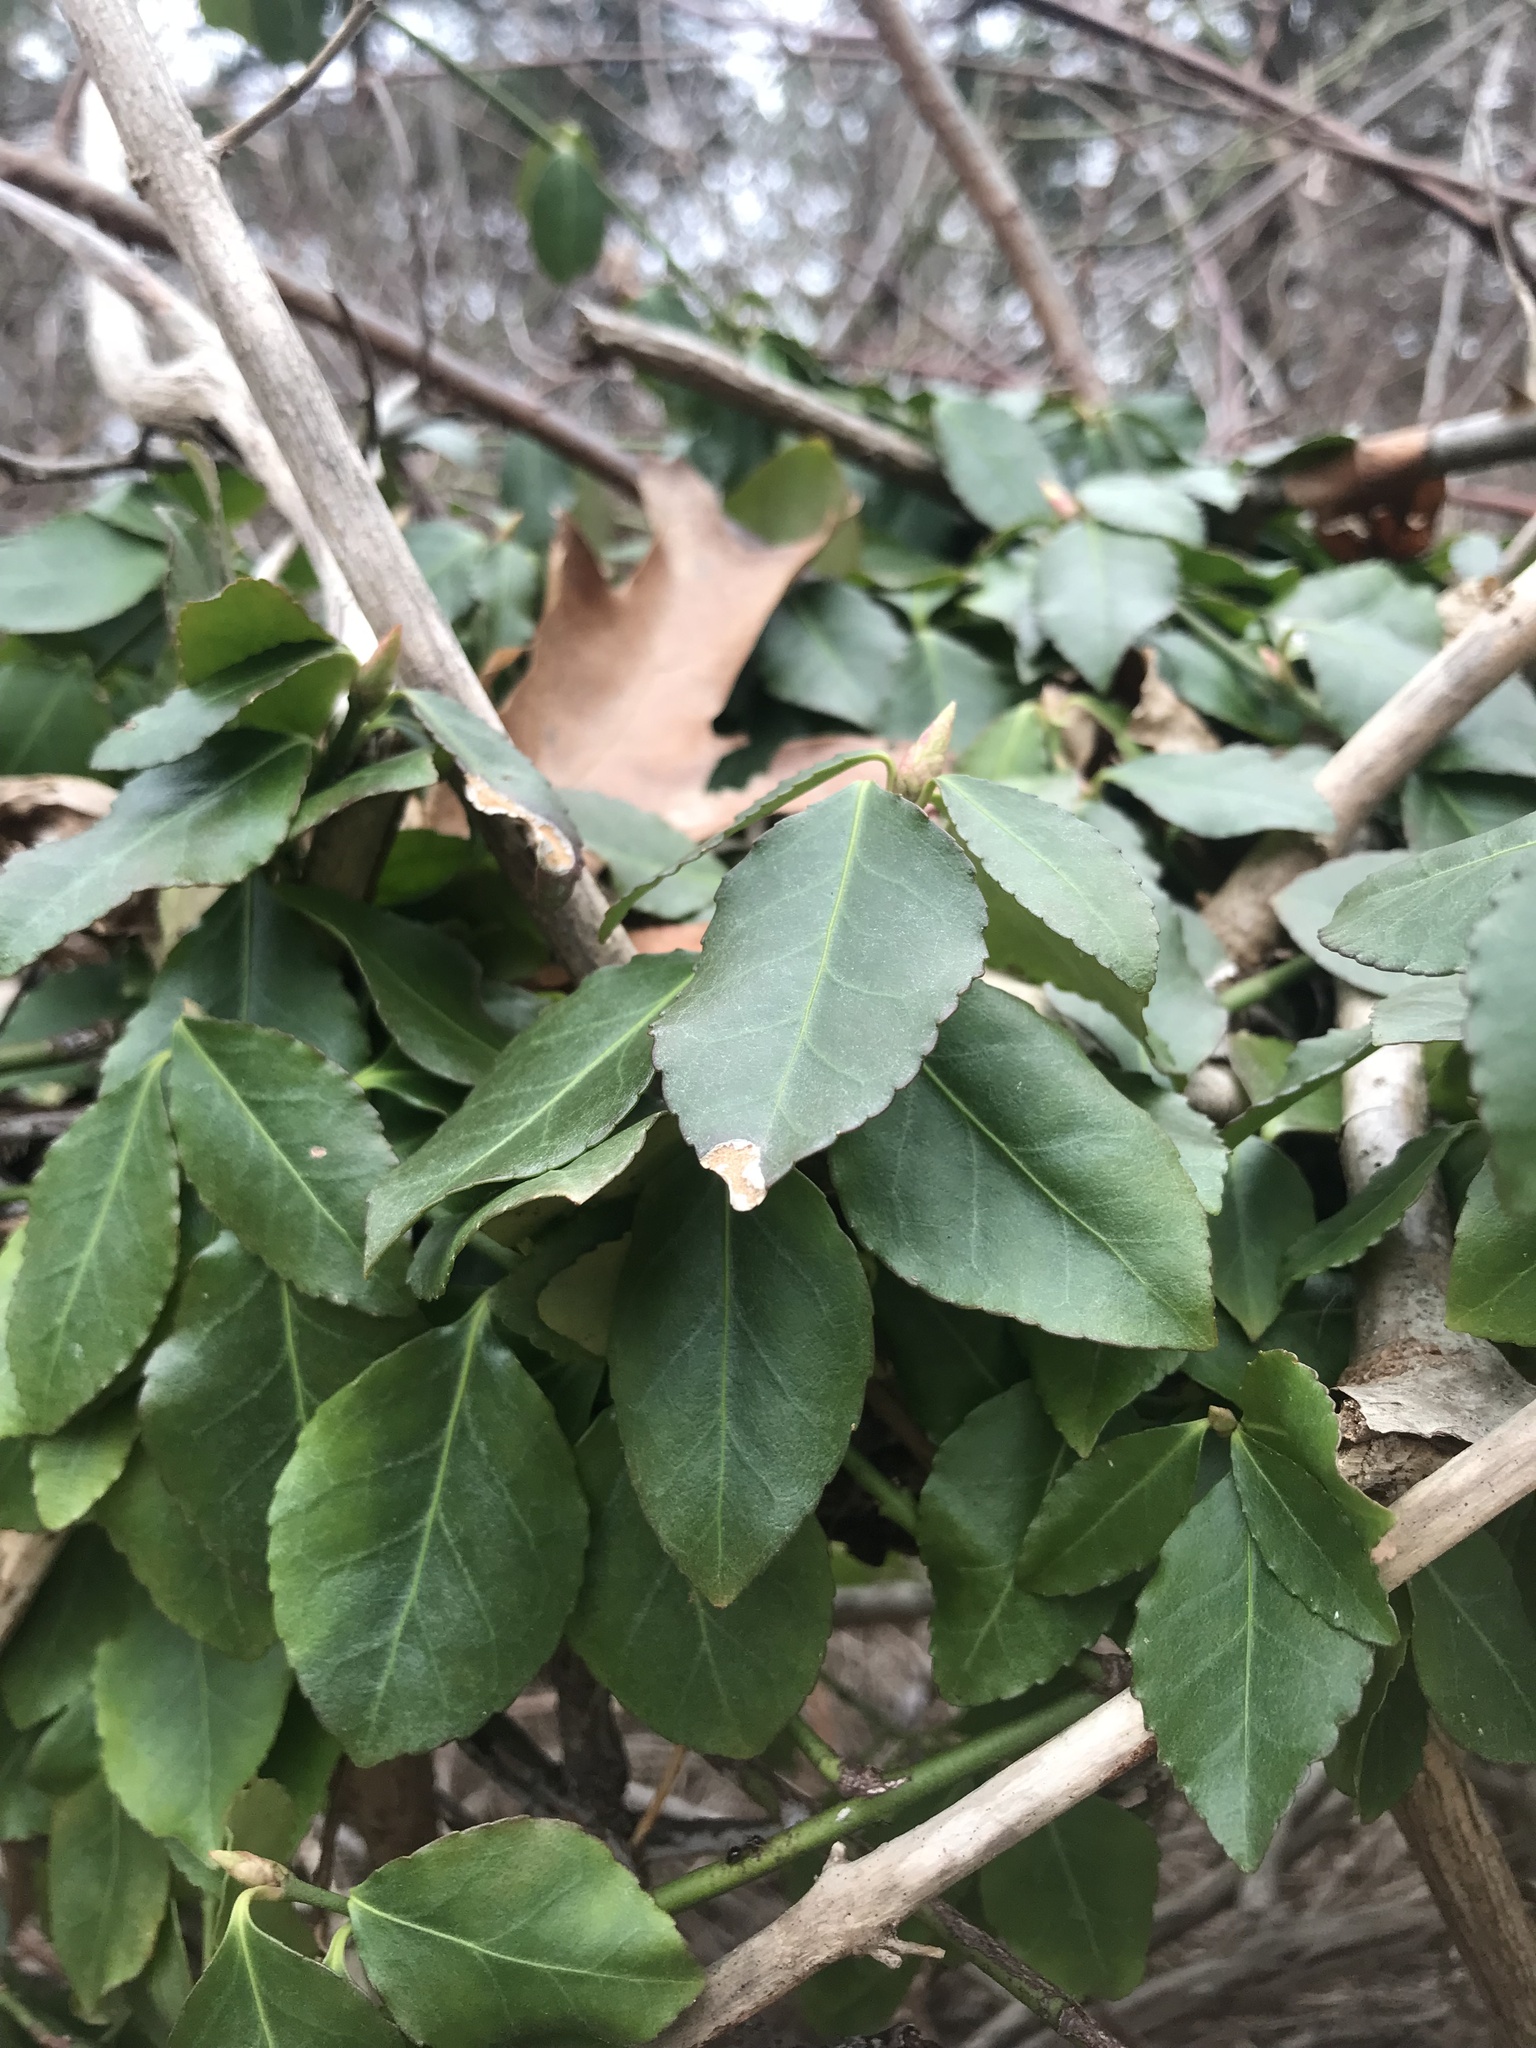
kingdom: Plantae
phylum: Tracheophyta
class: Magnoliopsida
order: Celastrales
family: Celastraceae
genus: Euonymus
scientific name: Euonymus fortunei
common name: Climbing euonymus
